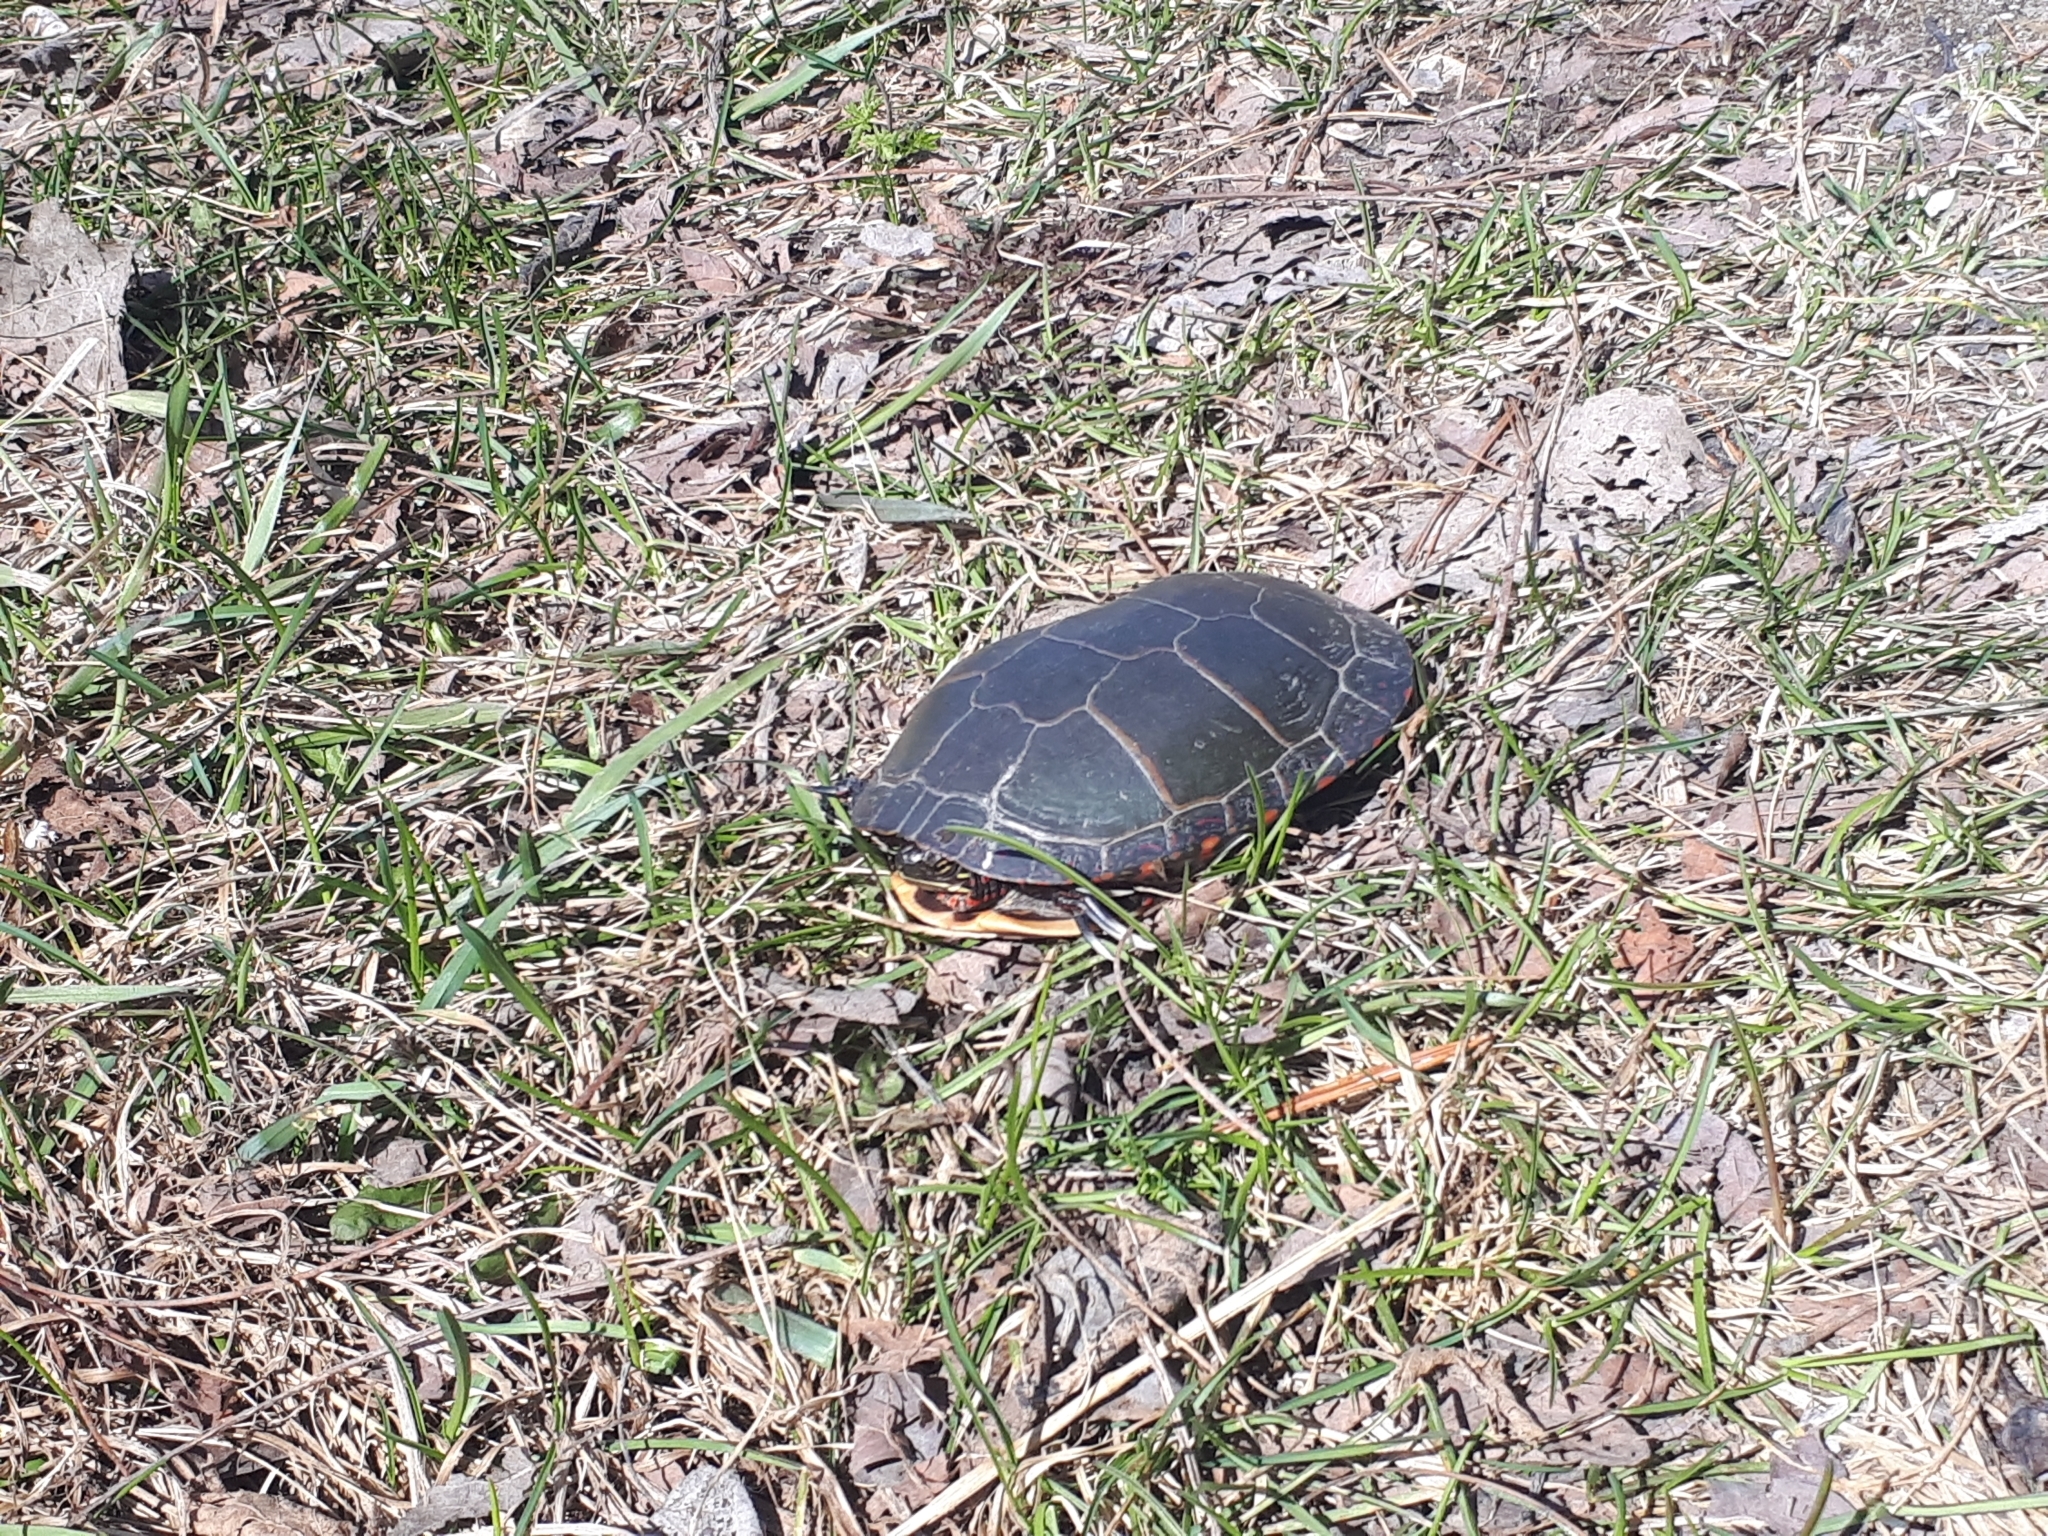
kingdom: Animalia
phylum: Chordata
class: Testudines
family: Emydidae
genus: Chrysemys
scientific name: Chrysemys picta
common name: Painted turtle
